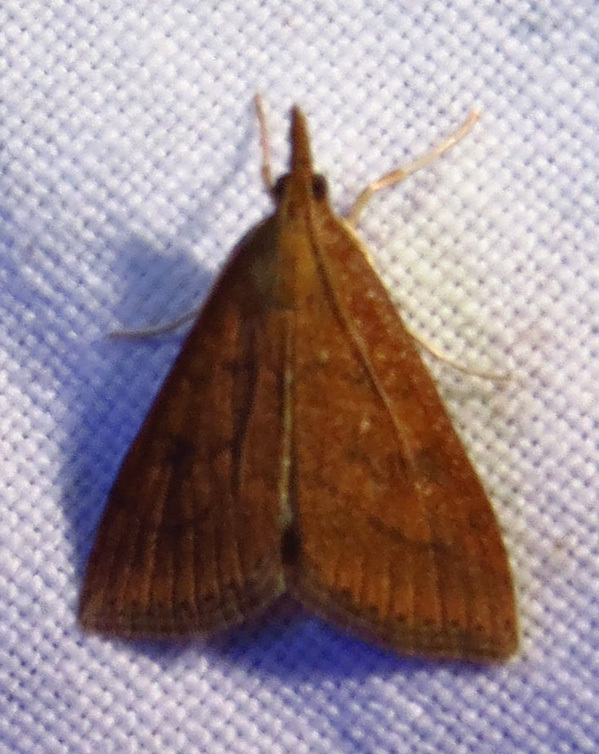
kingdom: Animalia
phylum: Arthropoda
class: Insecta
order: Lepidoptera
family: Crambidae
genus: Udea
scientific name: Udea rubigalis
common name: Celery leaftier moth
